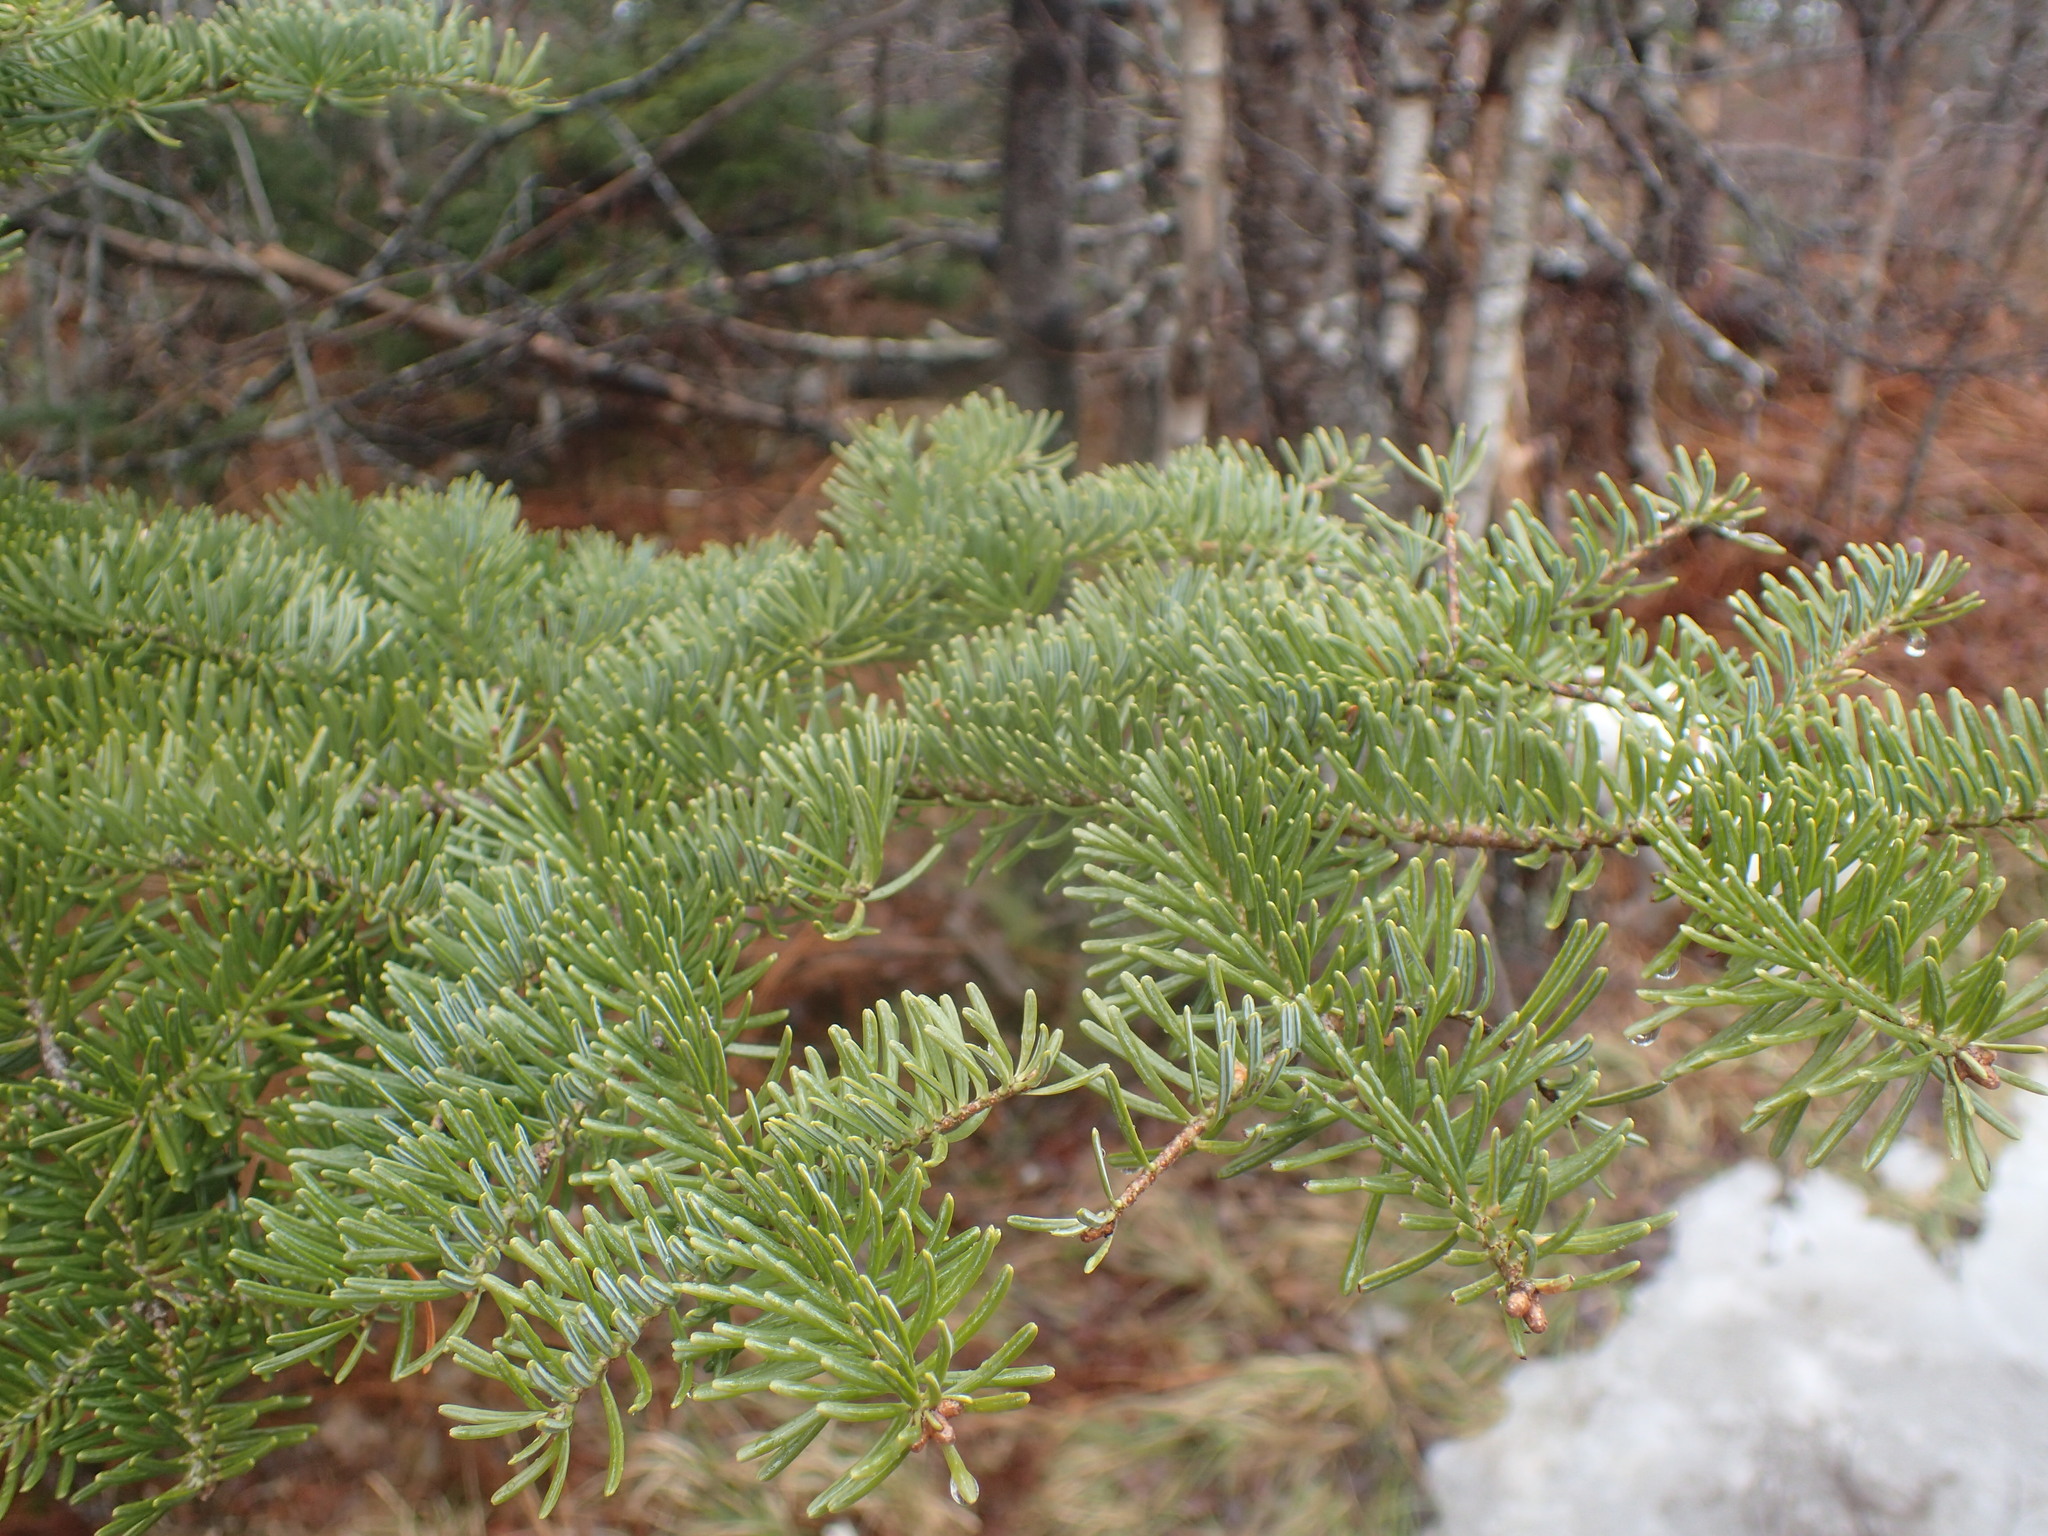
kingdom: Plantae
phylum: Tracheophyta
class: Pinopsida
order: Pinales
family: Pinaceae
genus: Abies
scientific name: Abies balsamea
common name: Balsam fir
